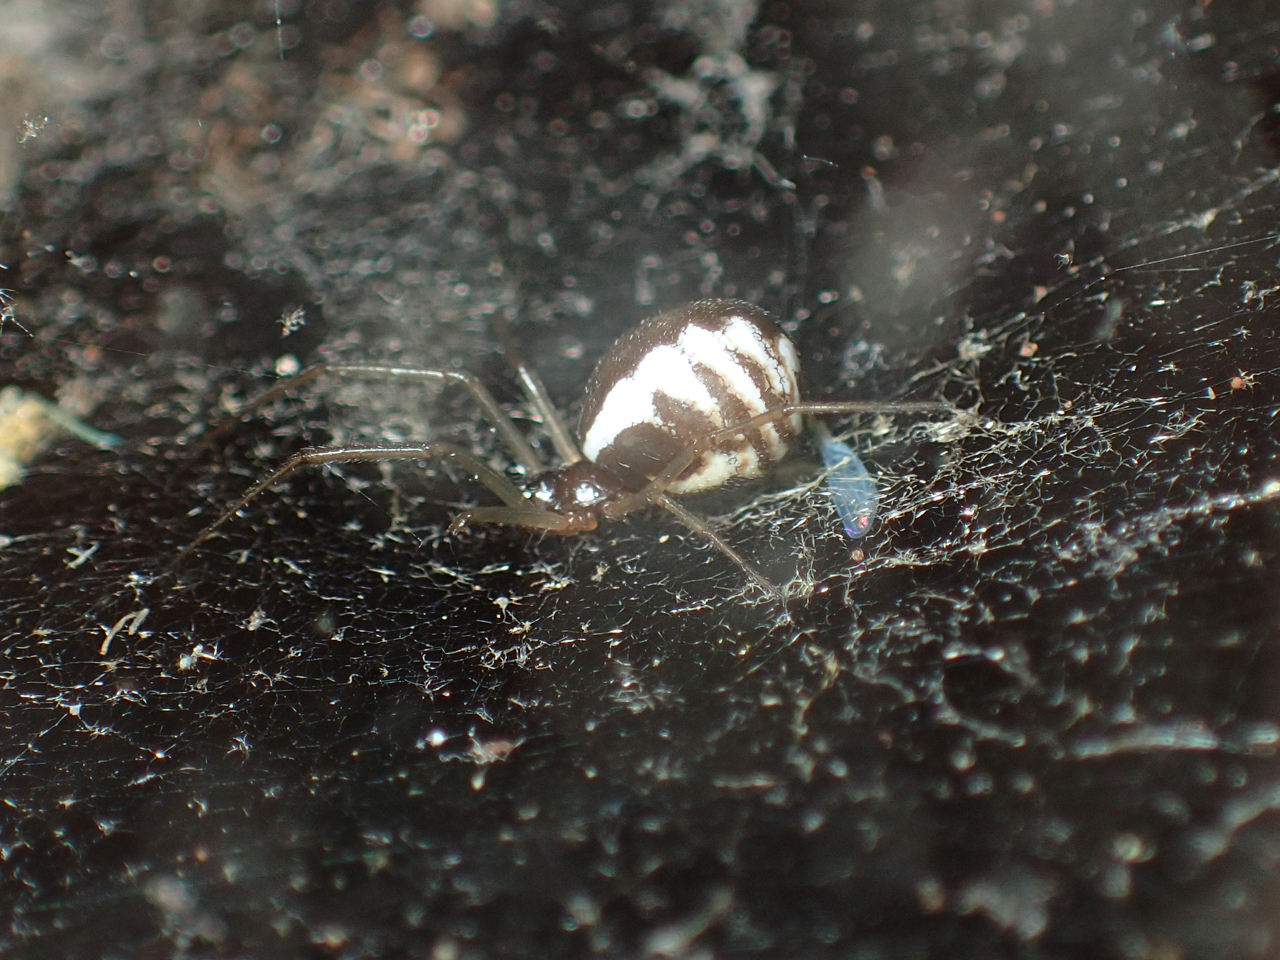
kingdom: Animalia
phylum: Arthropoda
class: Arachnida
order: Araneae
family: Linyphiidae
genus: Frontinella
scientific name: Frontinella pyramitela
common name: Bowl-and-doily spider
